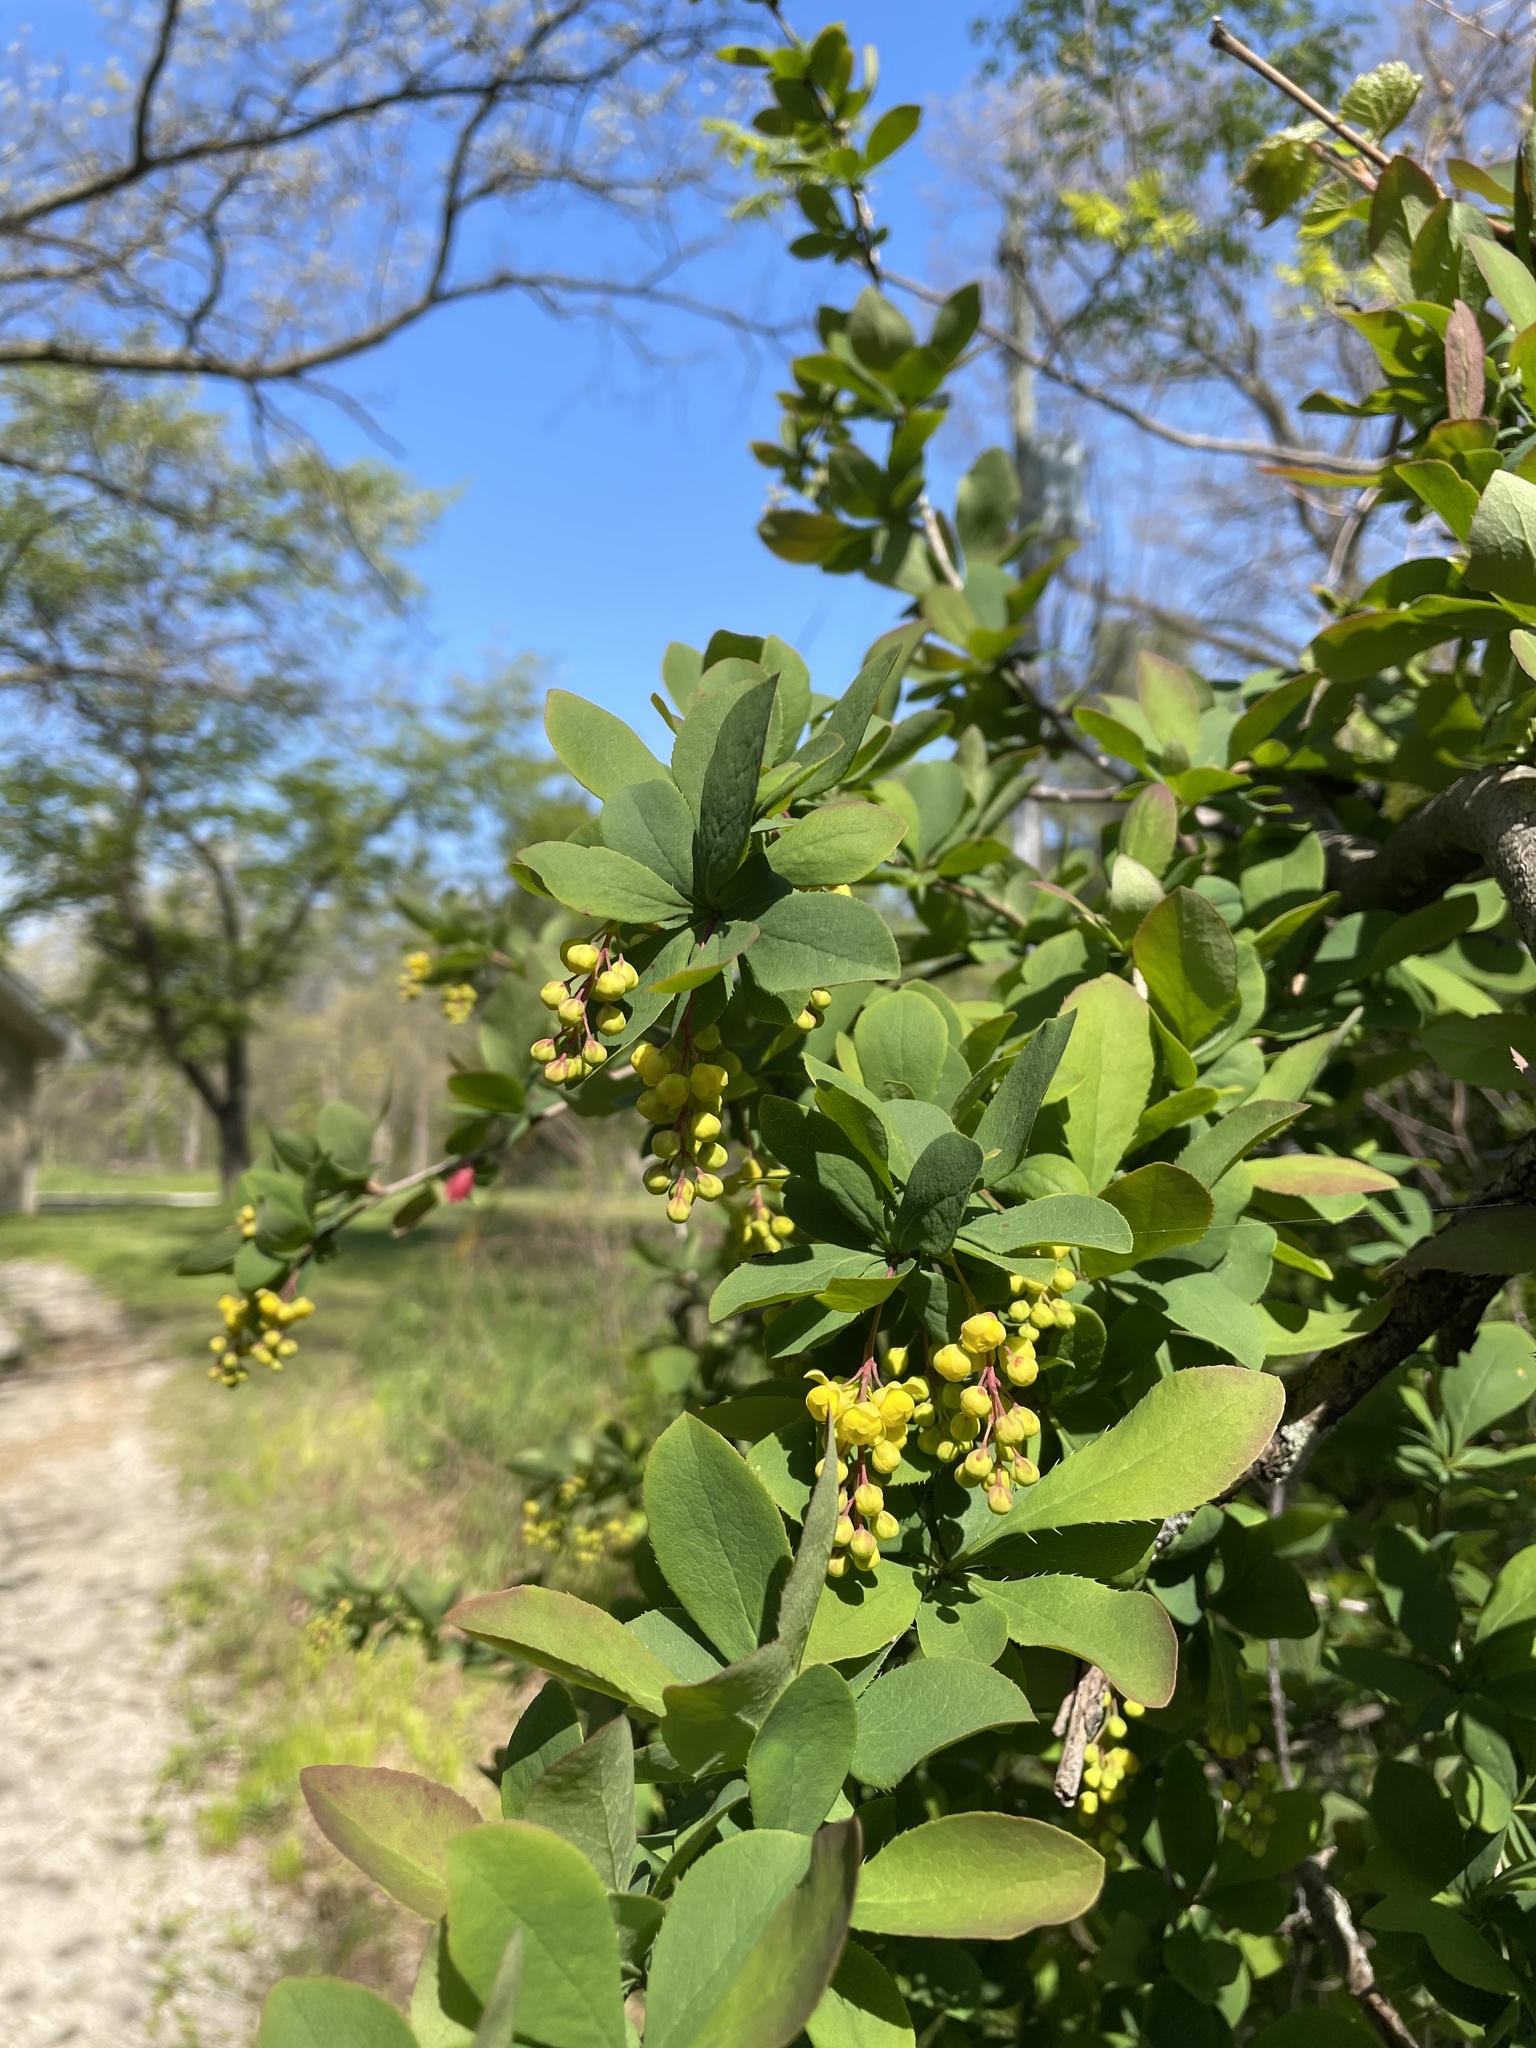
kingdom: Plantae
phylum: Tracheophyta
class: Magnoliopsida
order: Ranunculales
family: Berberidaceae
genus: Berberis
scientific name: Berberis vulgaris
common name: Barberry
